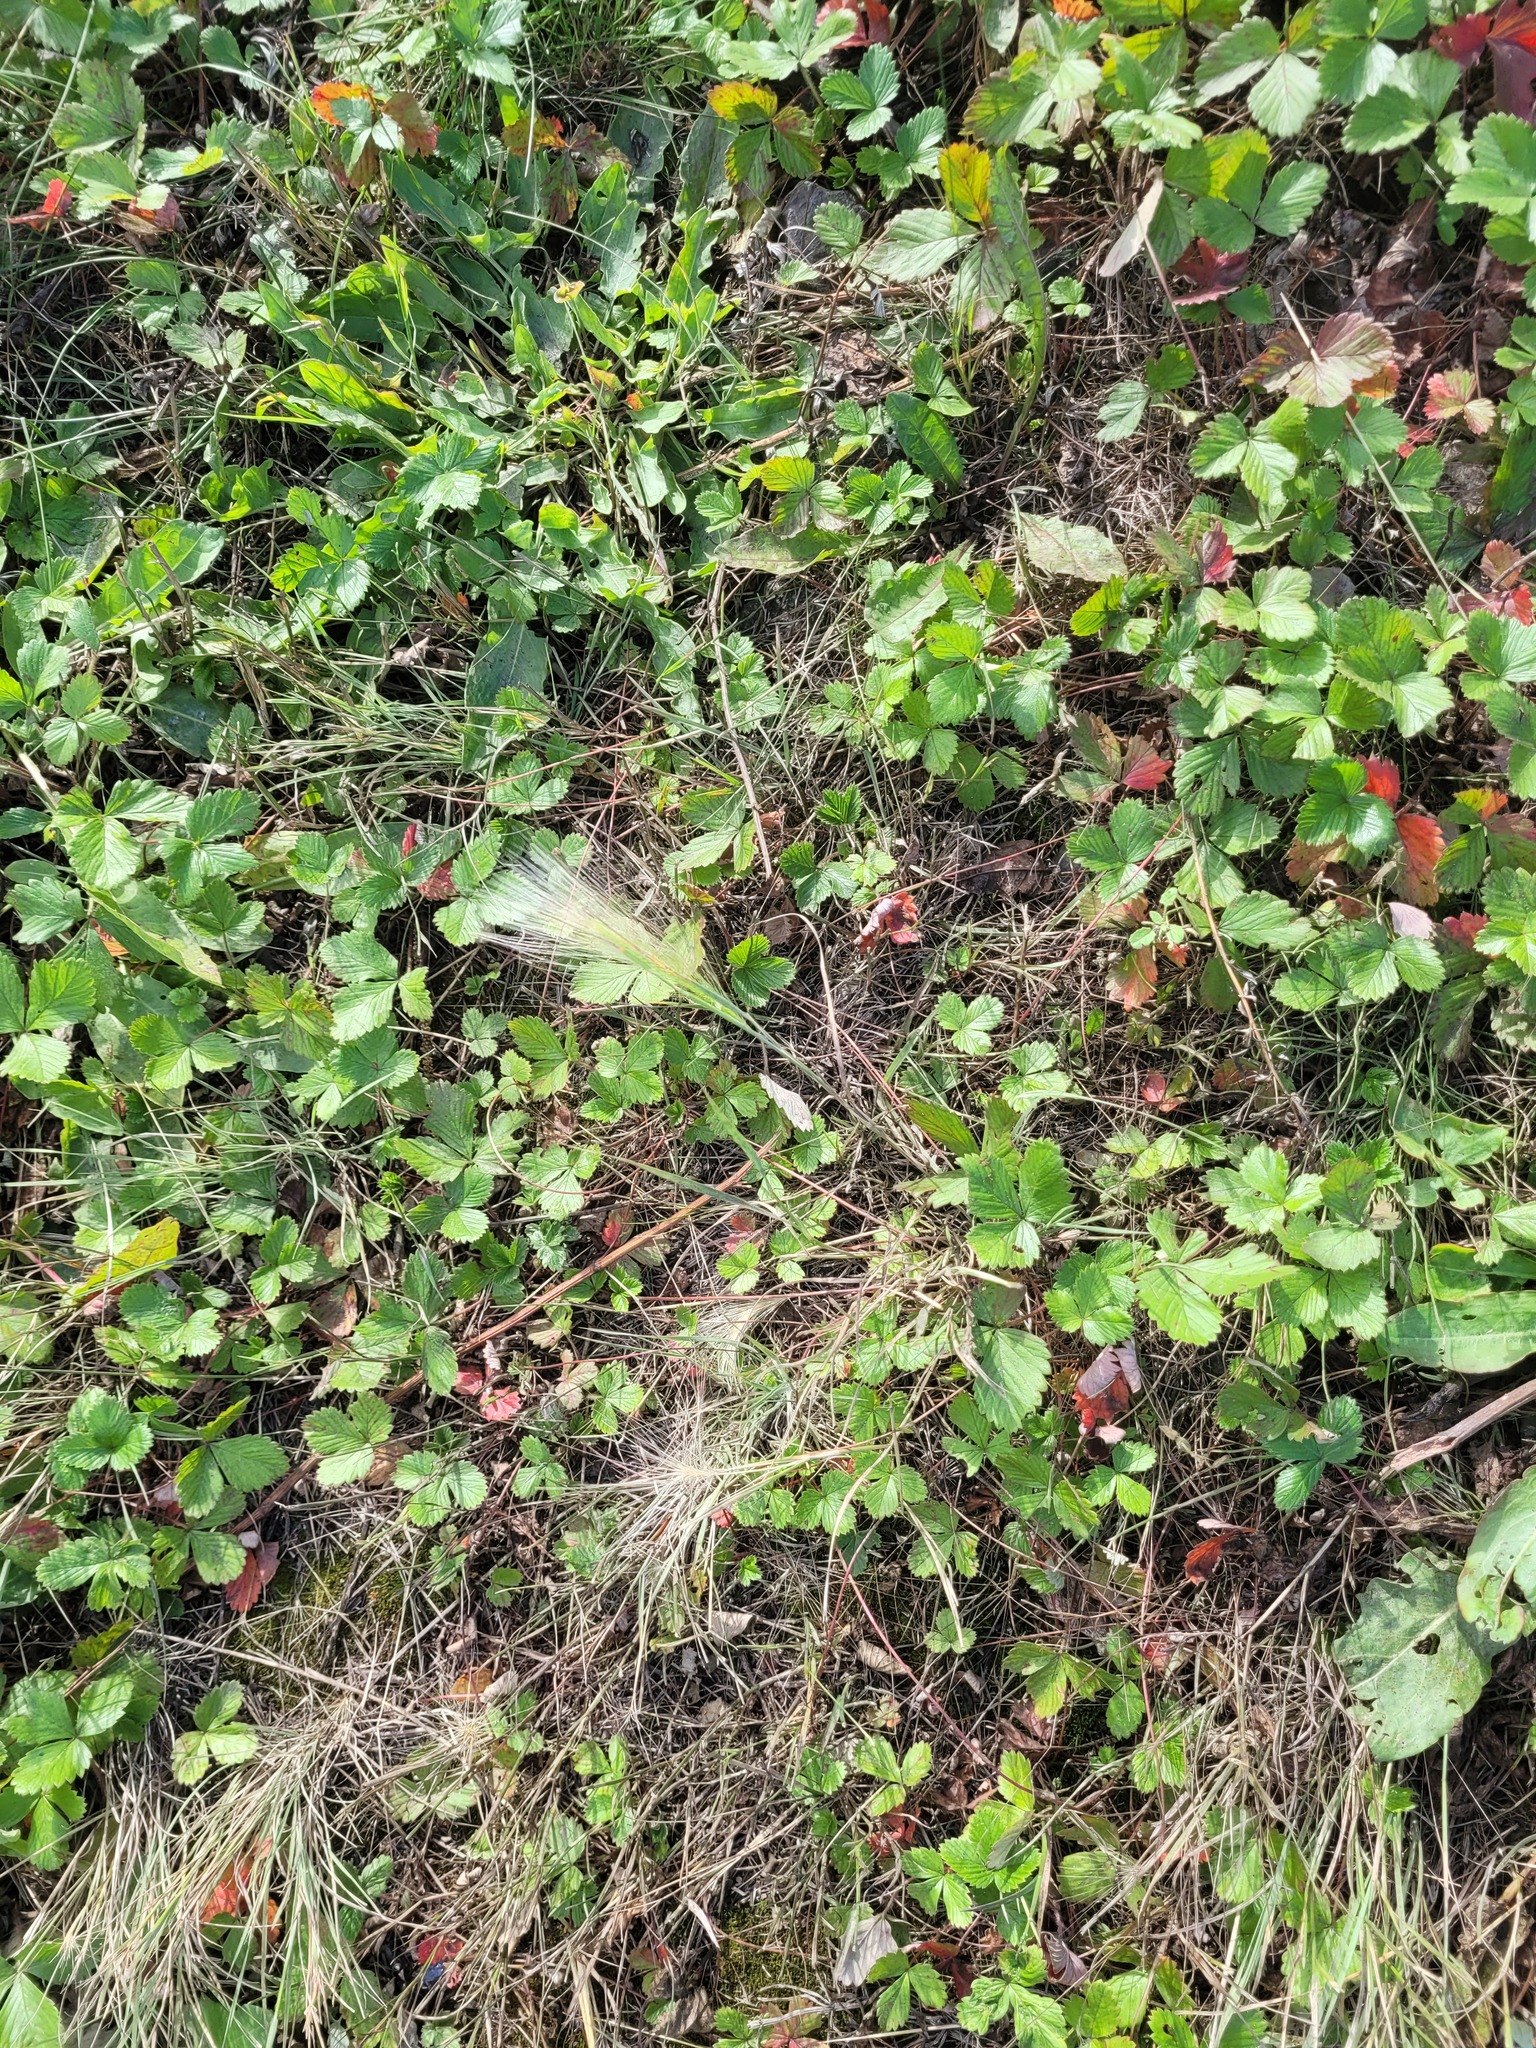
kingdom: Plantae
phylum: Tracheophyta
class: Liliopsida
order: Poales
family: Poaceae
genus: Hordeum
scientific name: Hordeum jubatum
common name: Foxtail barley
